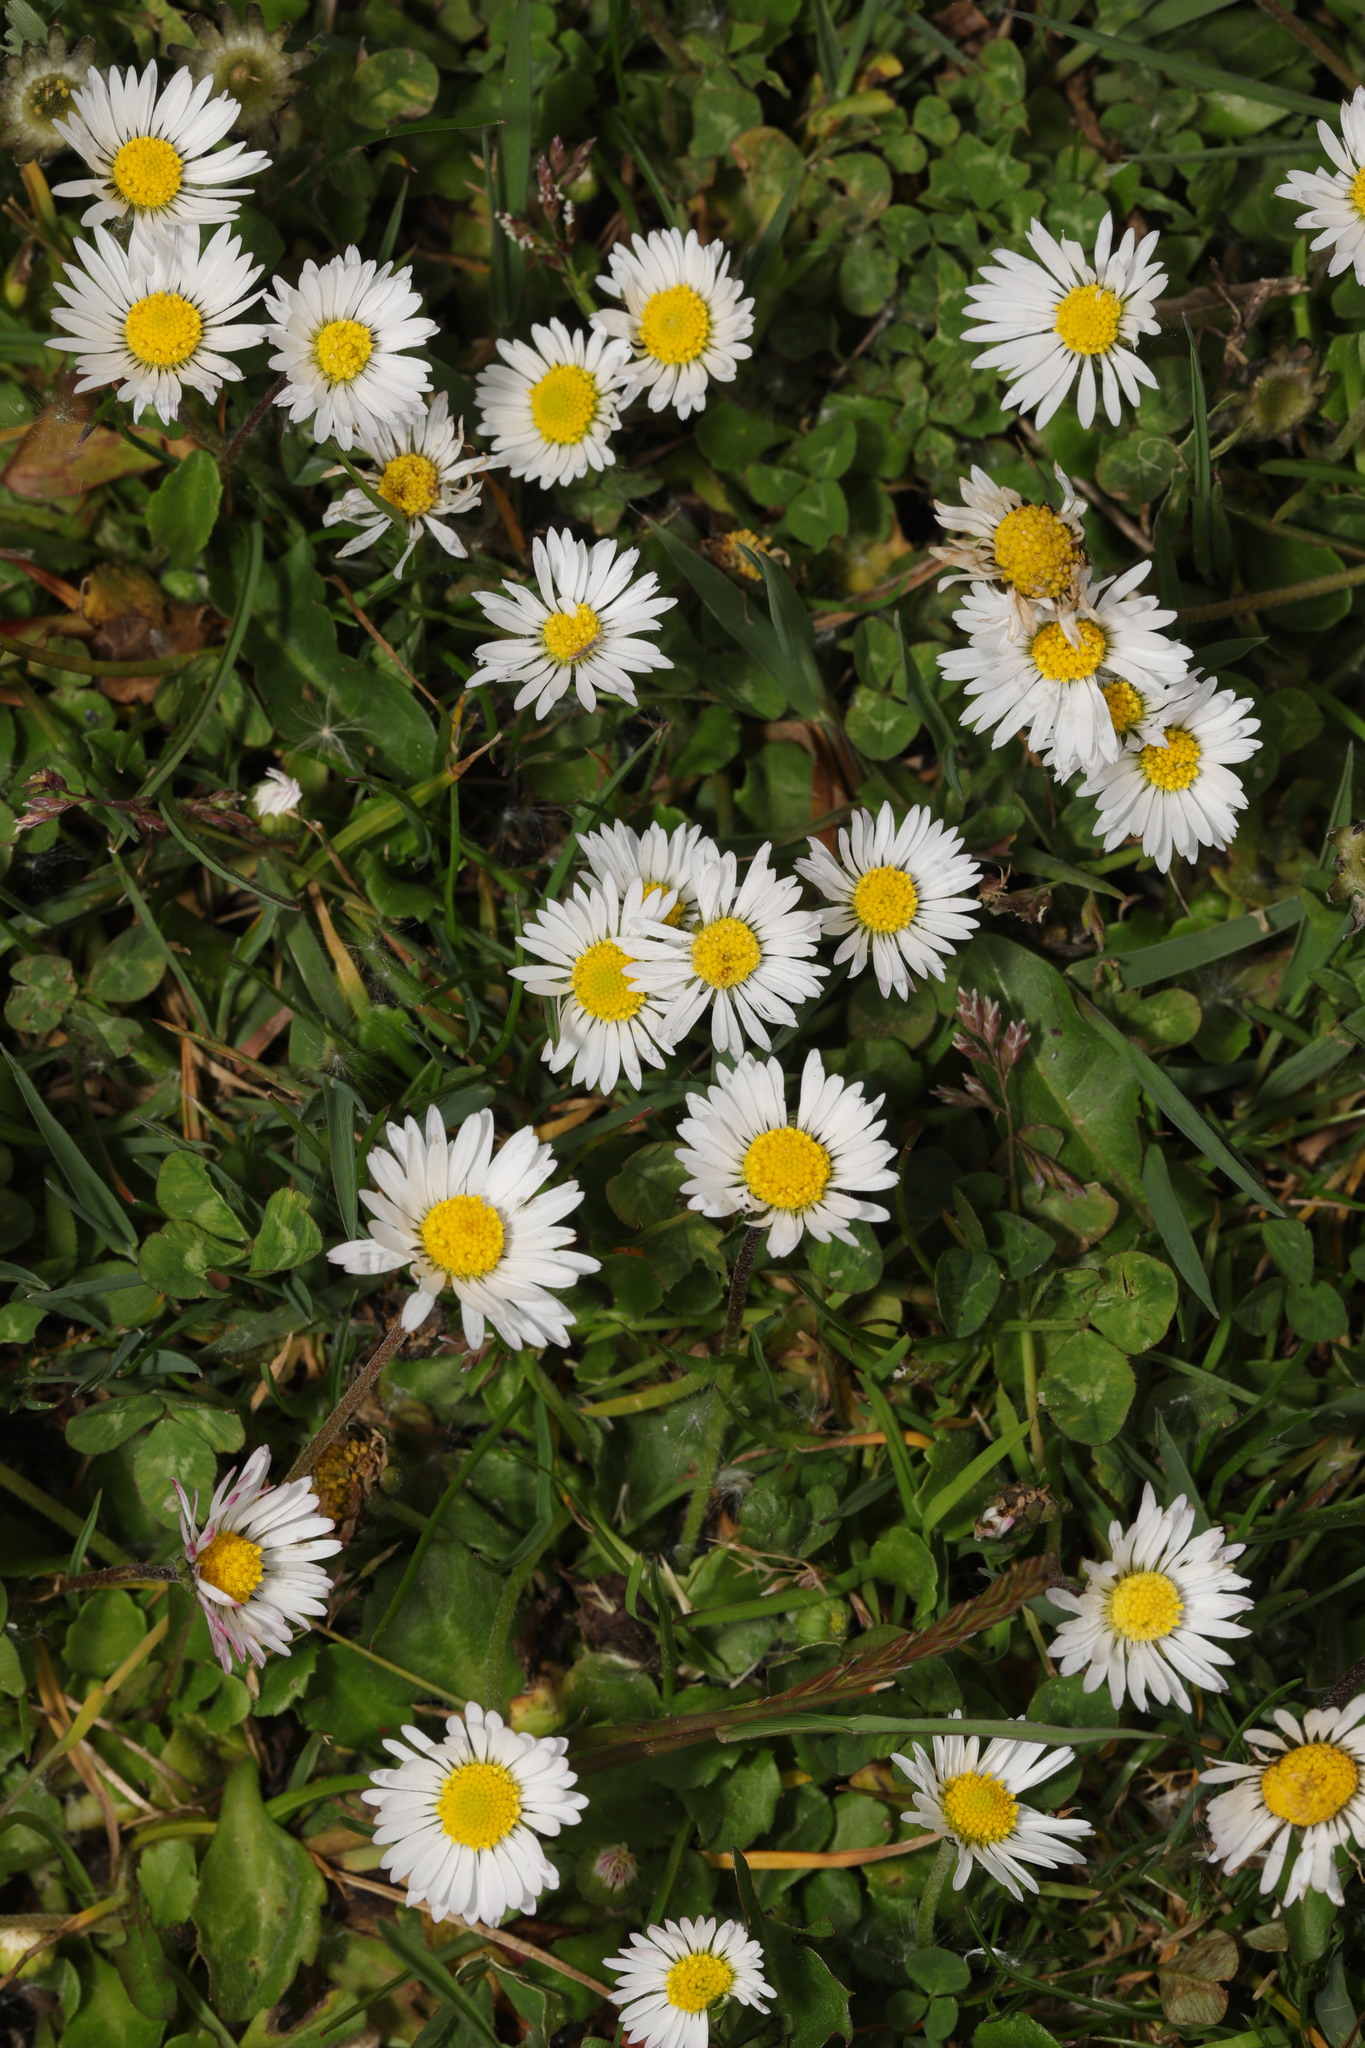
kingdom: Plantae
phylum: Tracheophyta
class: Magnoliopsida
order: Asterales
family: Asteraceae
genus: Bellis
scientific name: Bellis perennis
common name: Lawndaisy
